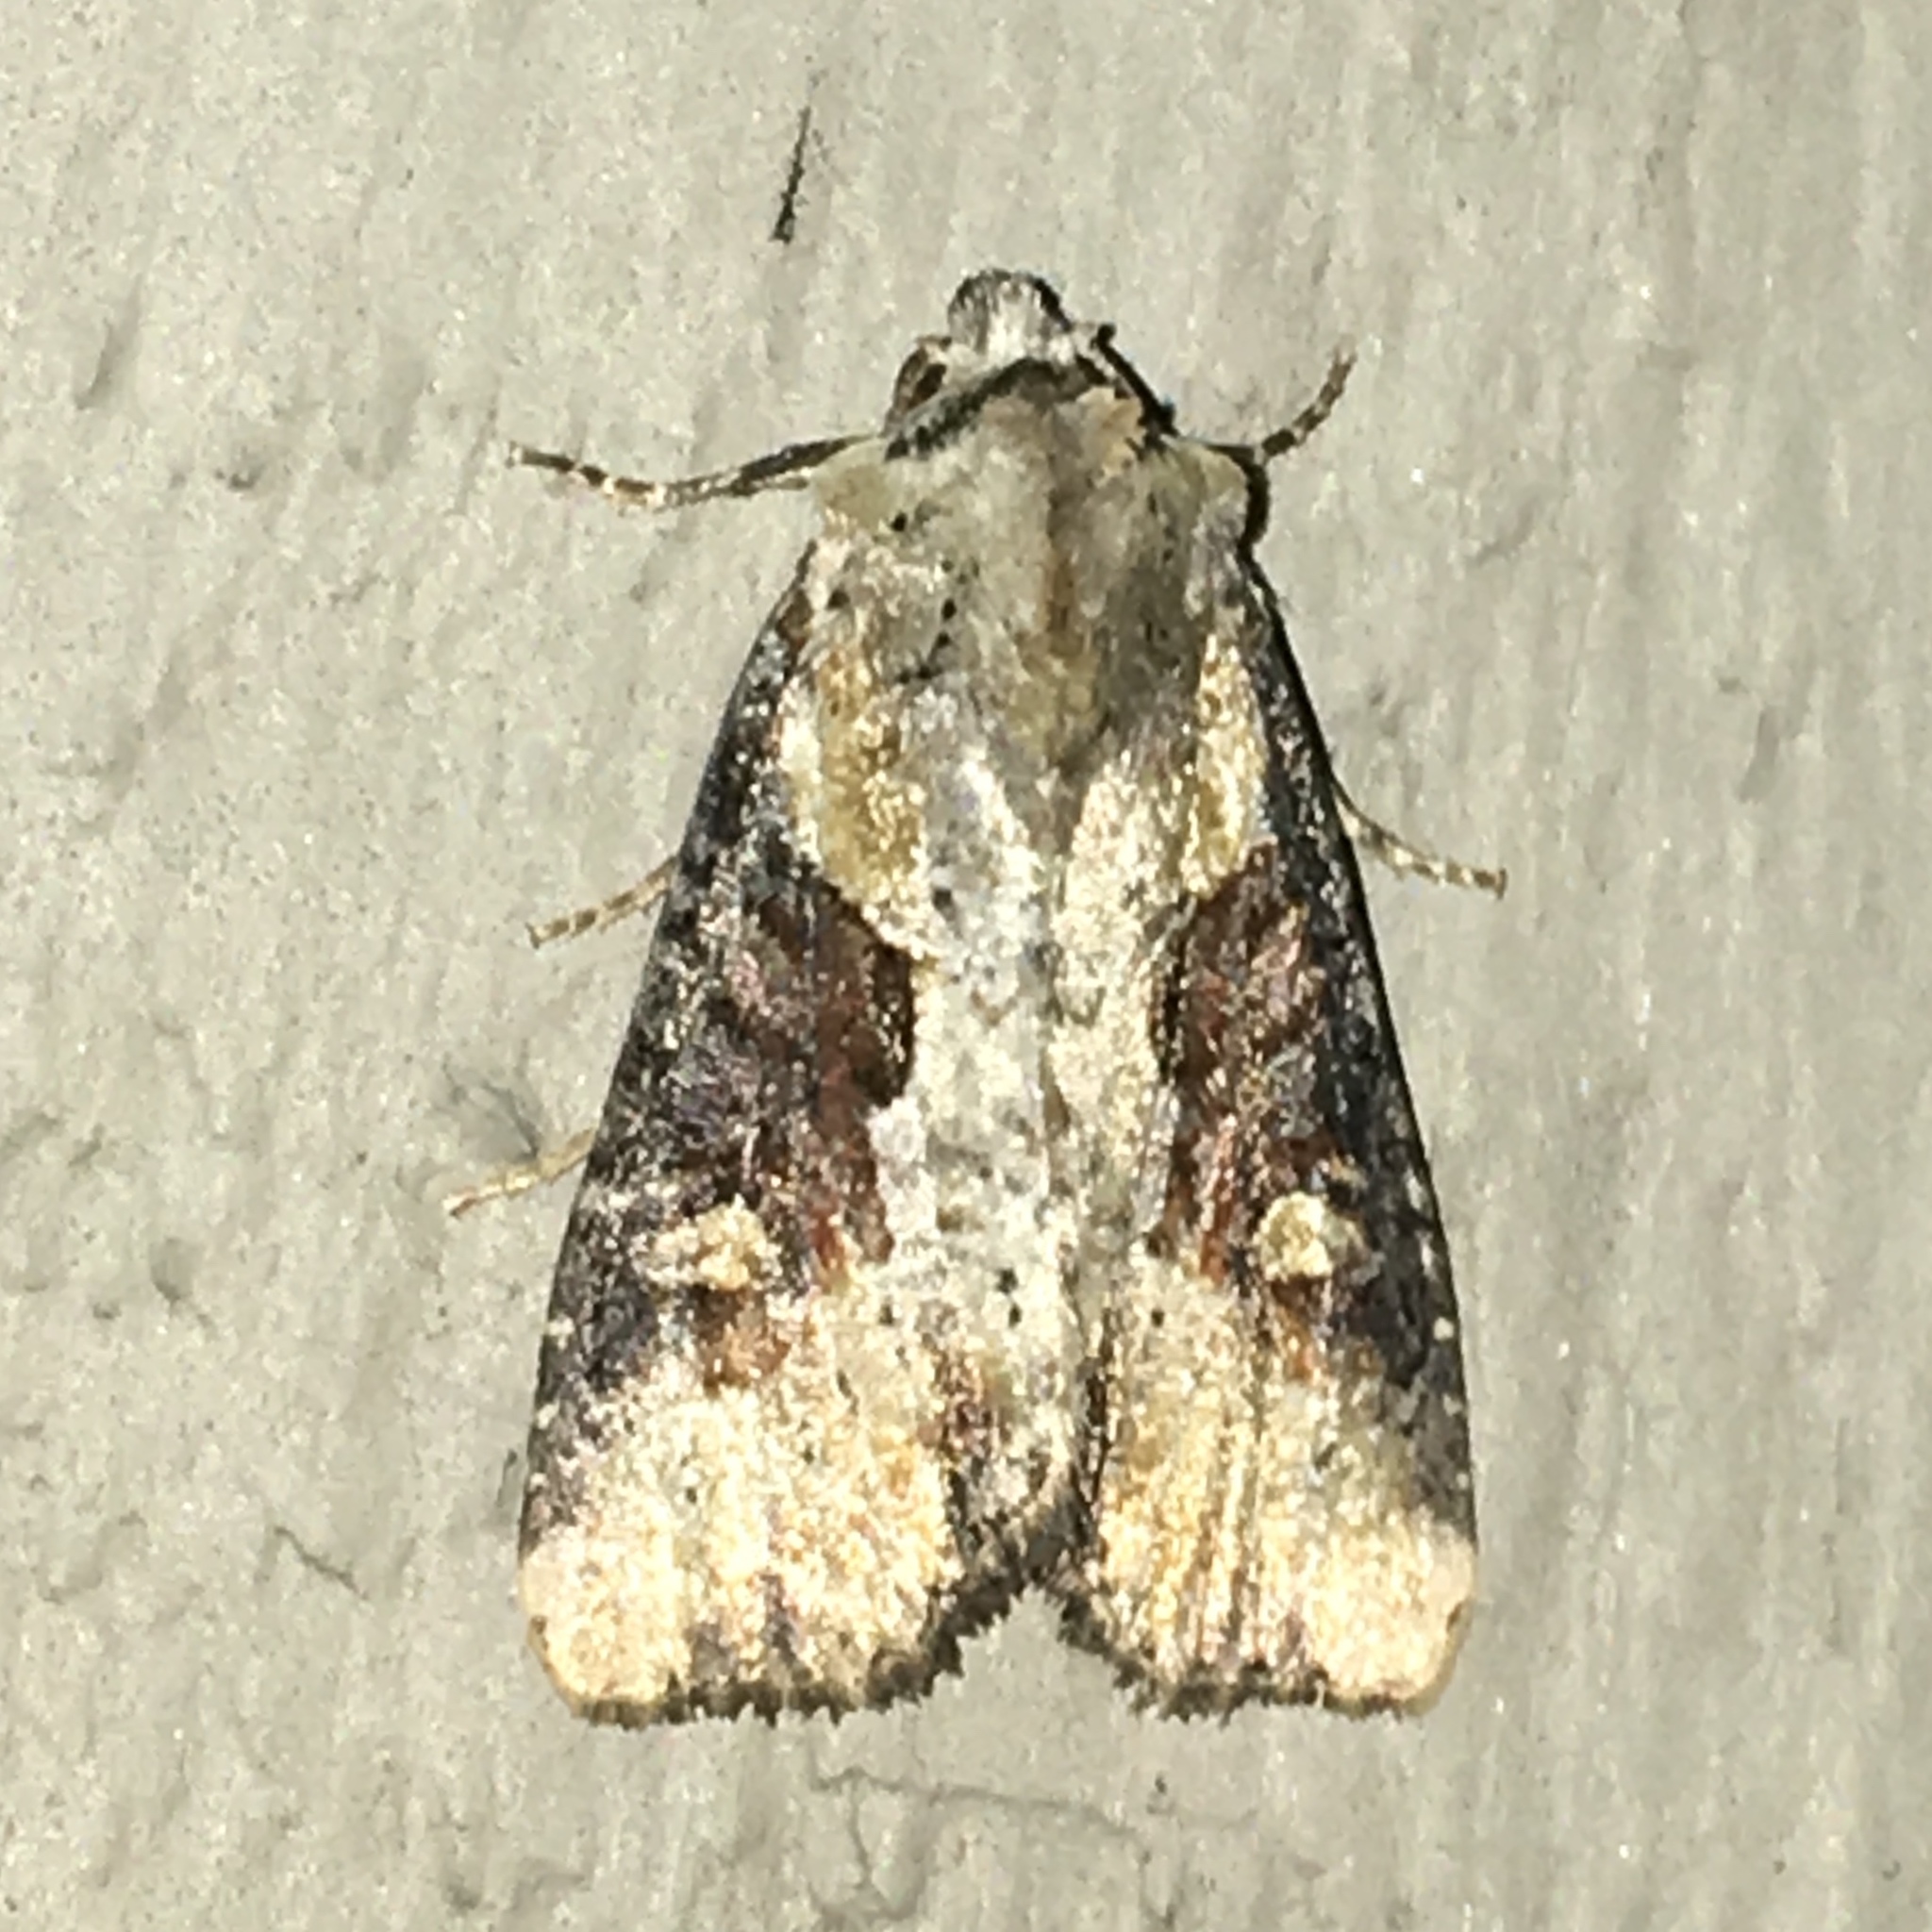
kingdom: Animalia
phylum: Arthropoda
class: Insecta
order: Lepidoptera
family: Noctuidae
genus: Lateroligia
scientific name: Lateroligia ophiogramma
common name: Double lobed
